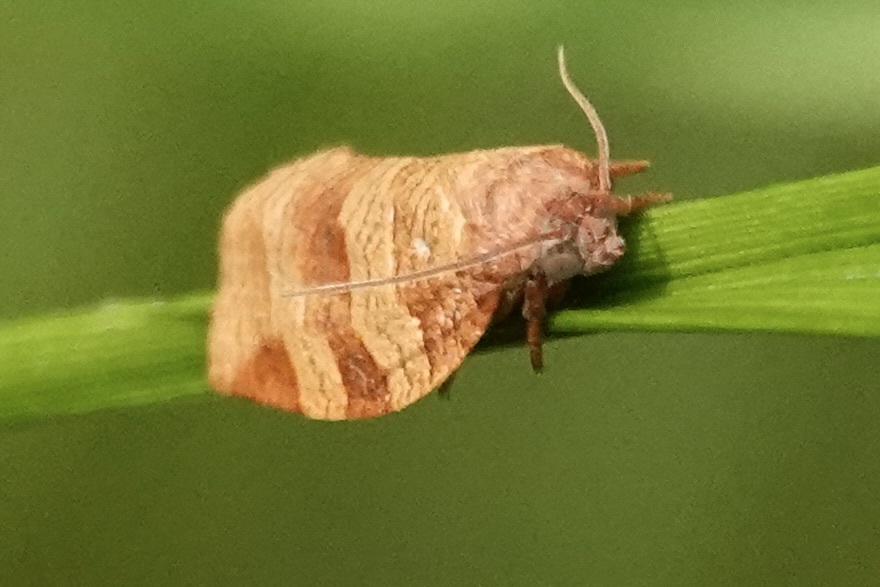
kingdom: Animalia
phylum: Arthropoda
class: Insecta
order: Lepidoptera
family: Tortricidae
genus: Choristoneura
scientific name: Choristoneura parallela
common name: Parallel-banded leafroller moth
